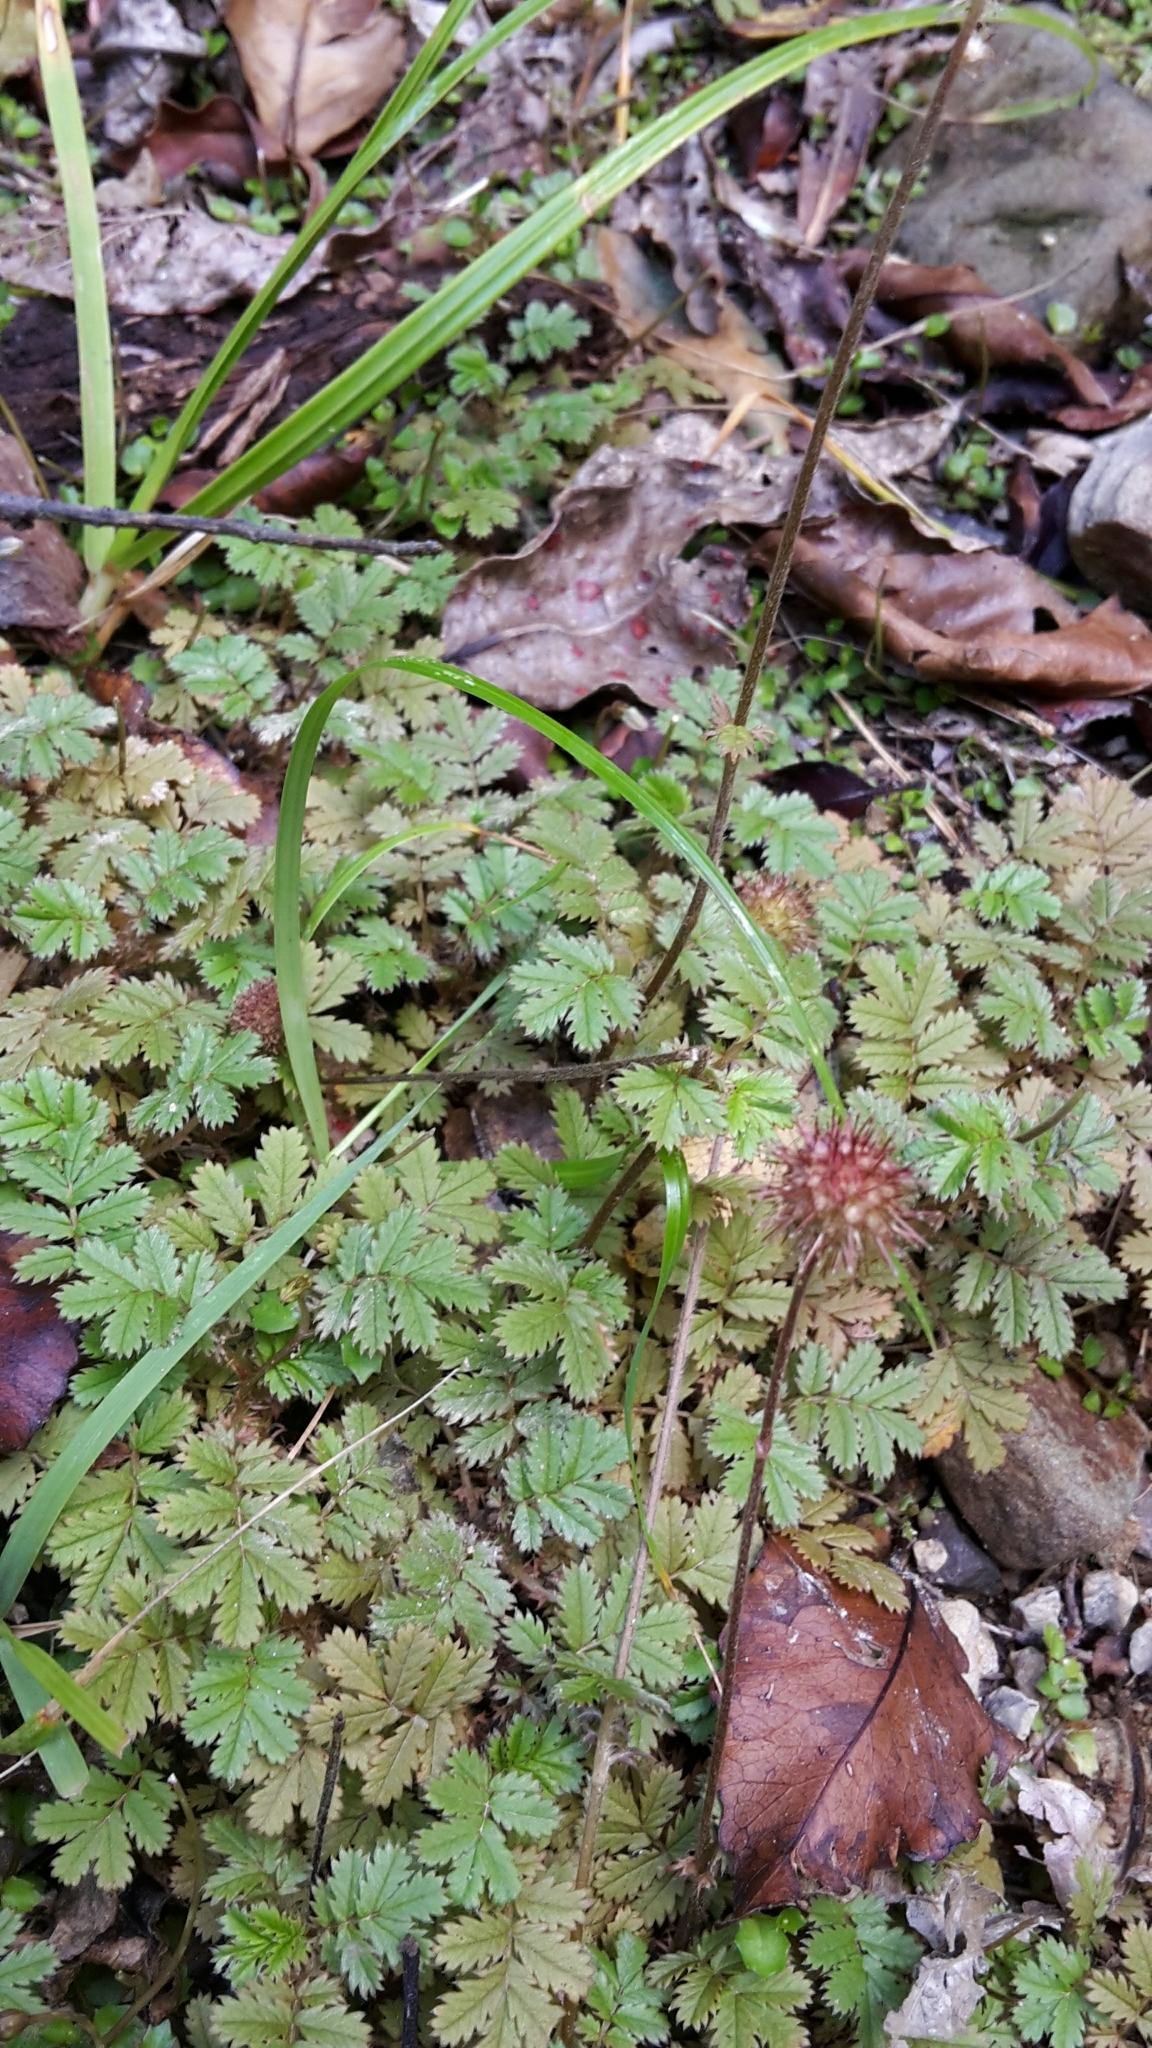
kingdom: Plantae
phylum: Tracheophyta
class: Magnoliopsida
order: Rosales
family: Rosaceae
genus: Acaena
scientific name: Acaena anserinifolia
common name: Bronze pirri-pirri-bur
